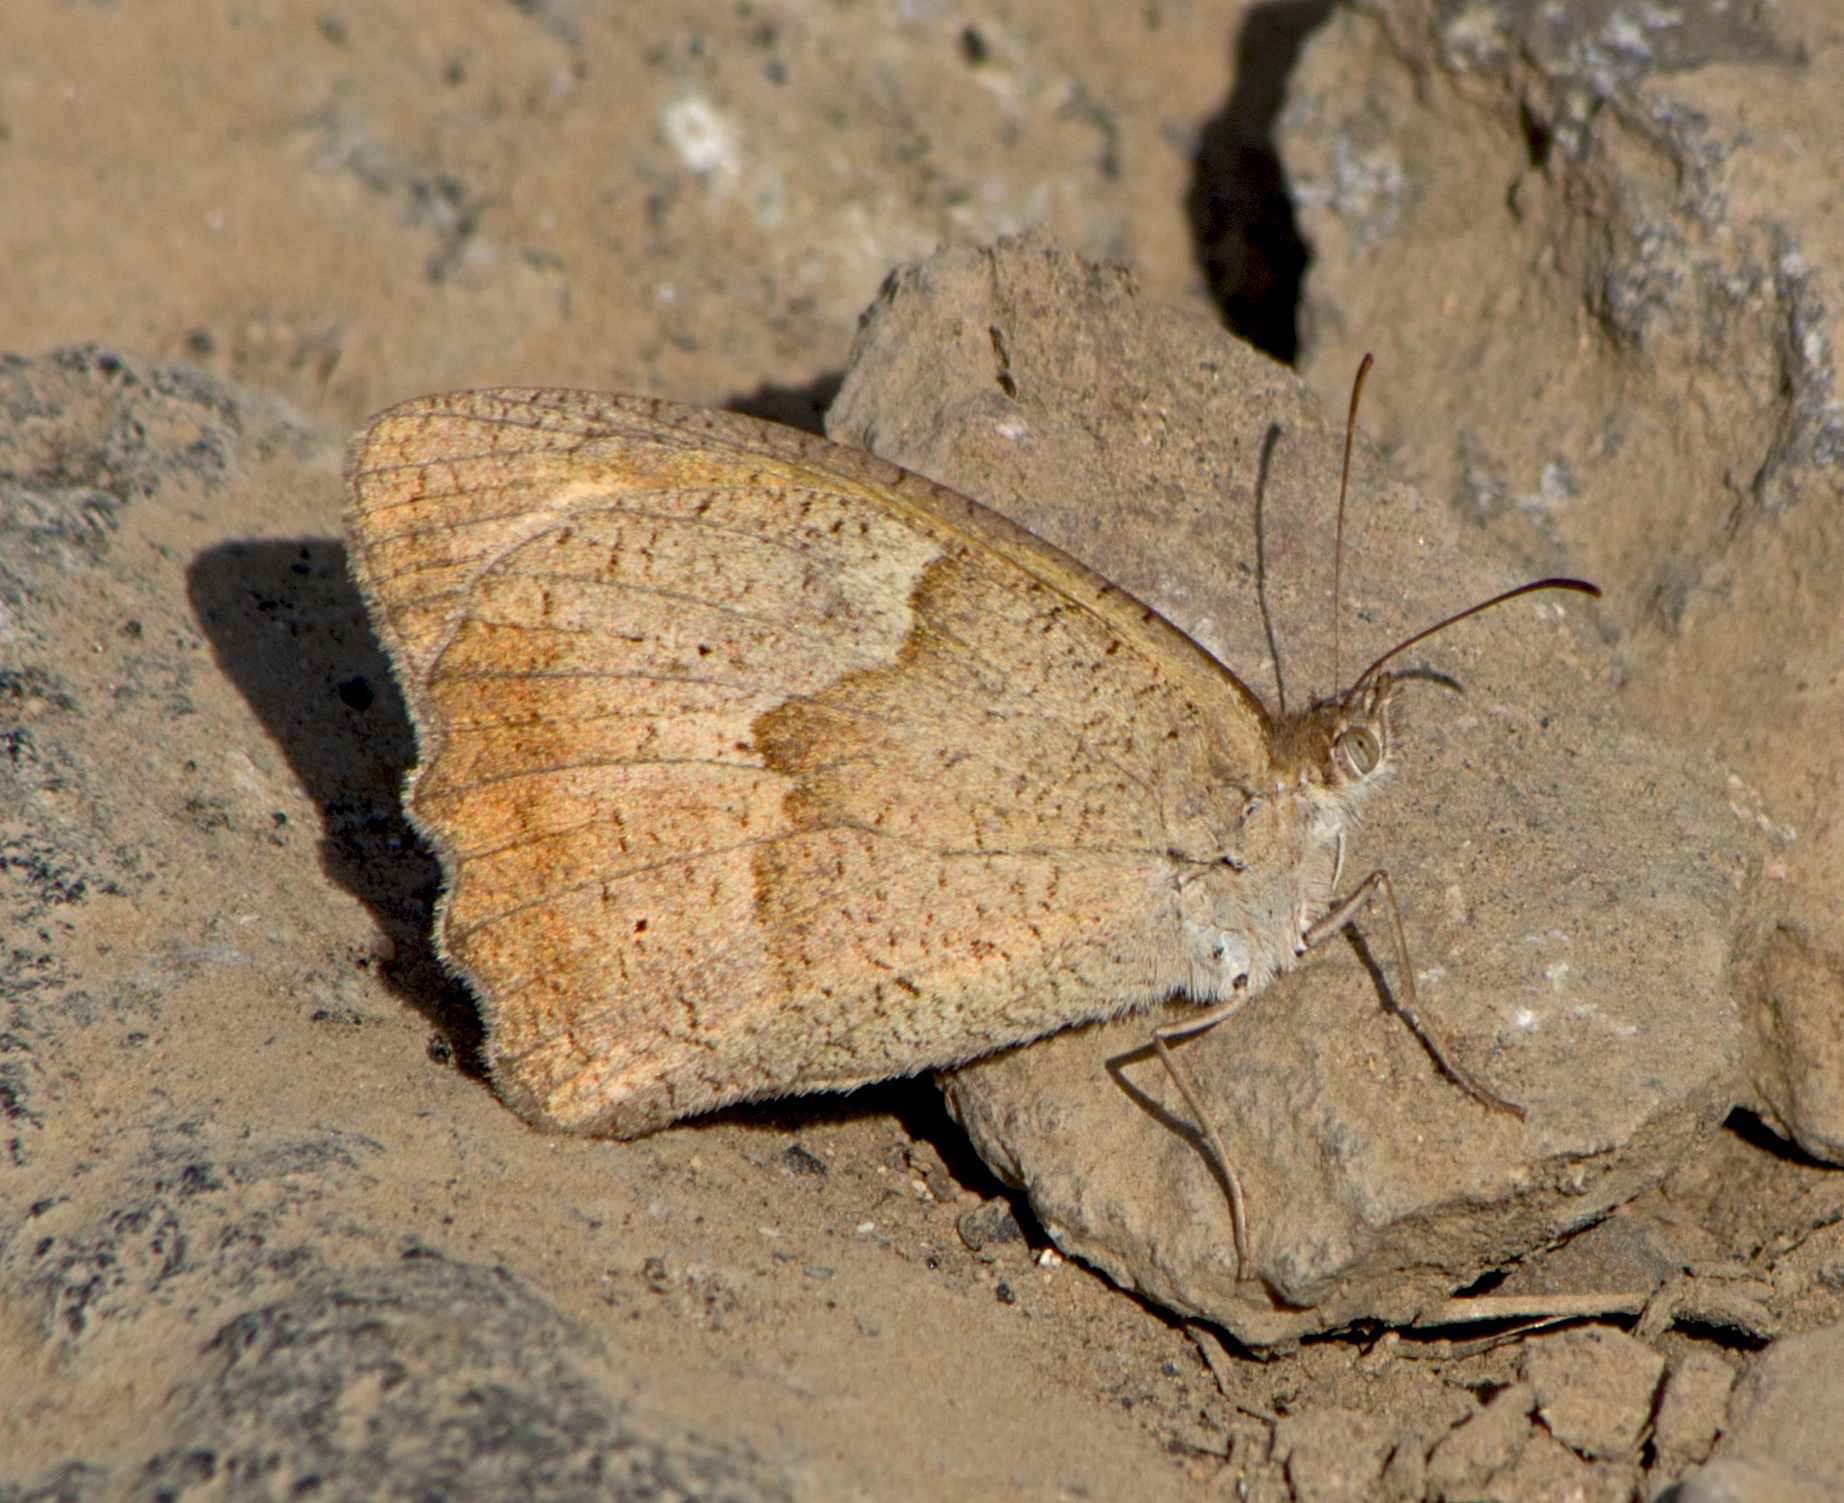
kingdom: Animalia
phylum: Arthropoda
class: Insecta
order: Lepidoptera
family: Nymphalidae
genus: Maniola
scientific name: Maniola jurtina
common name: Meadow brown
